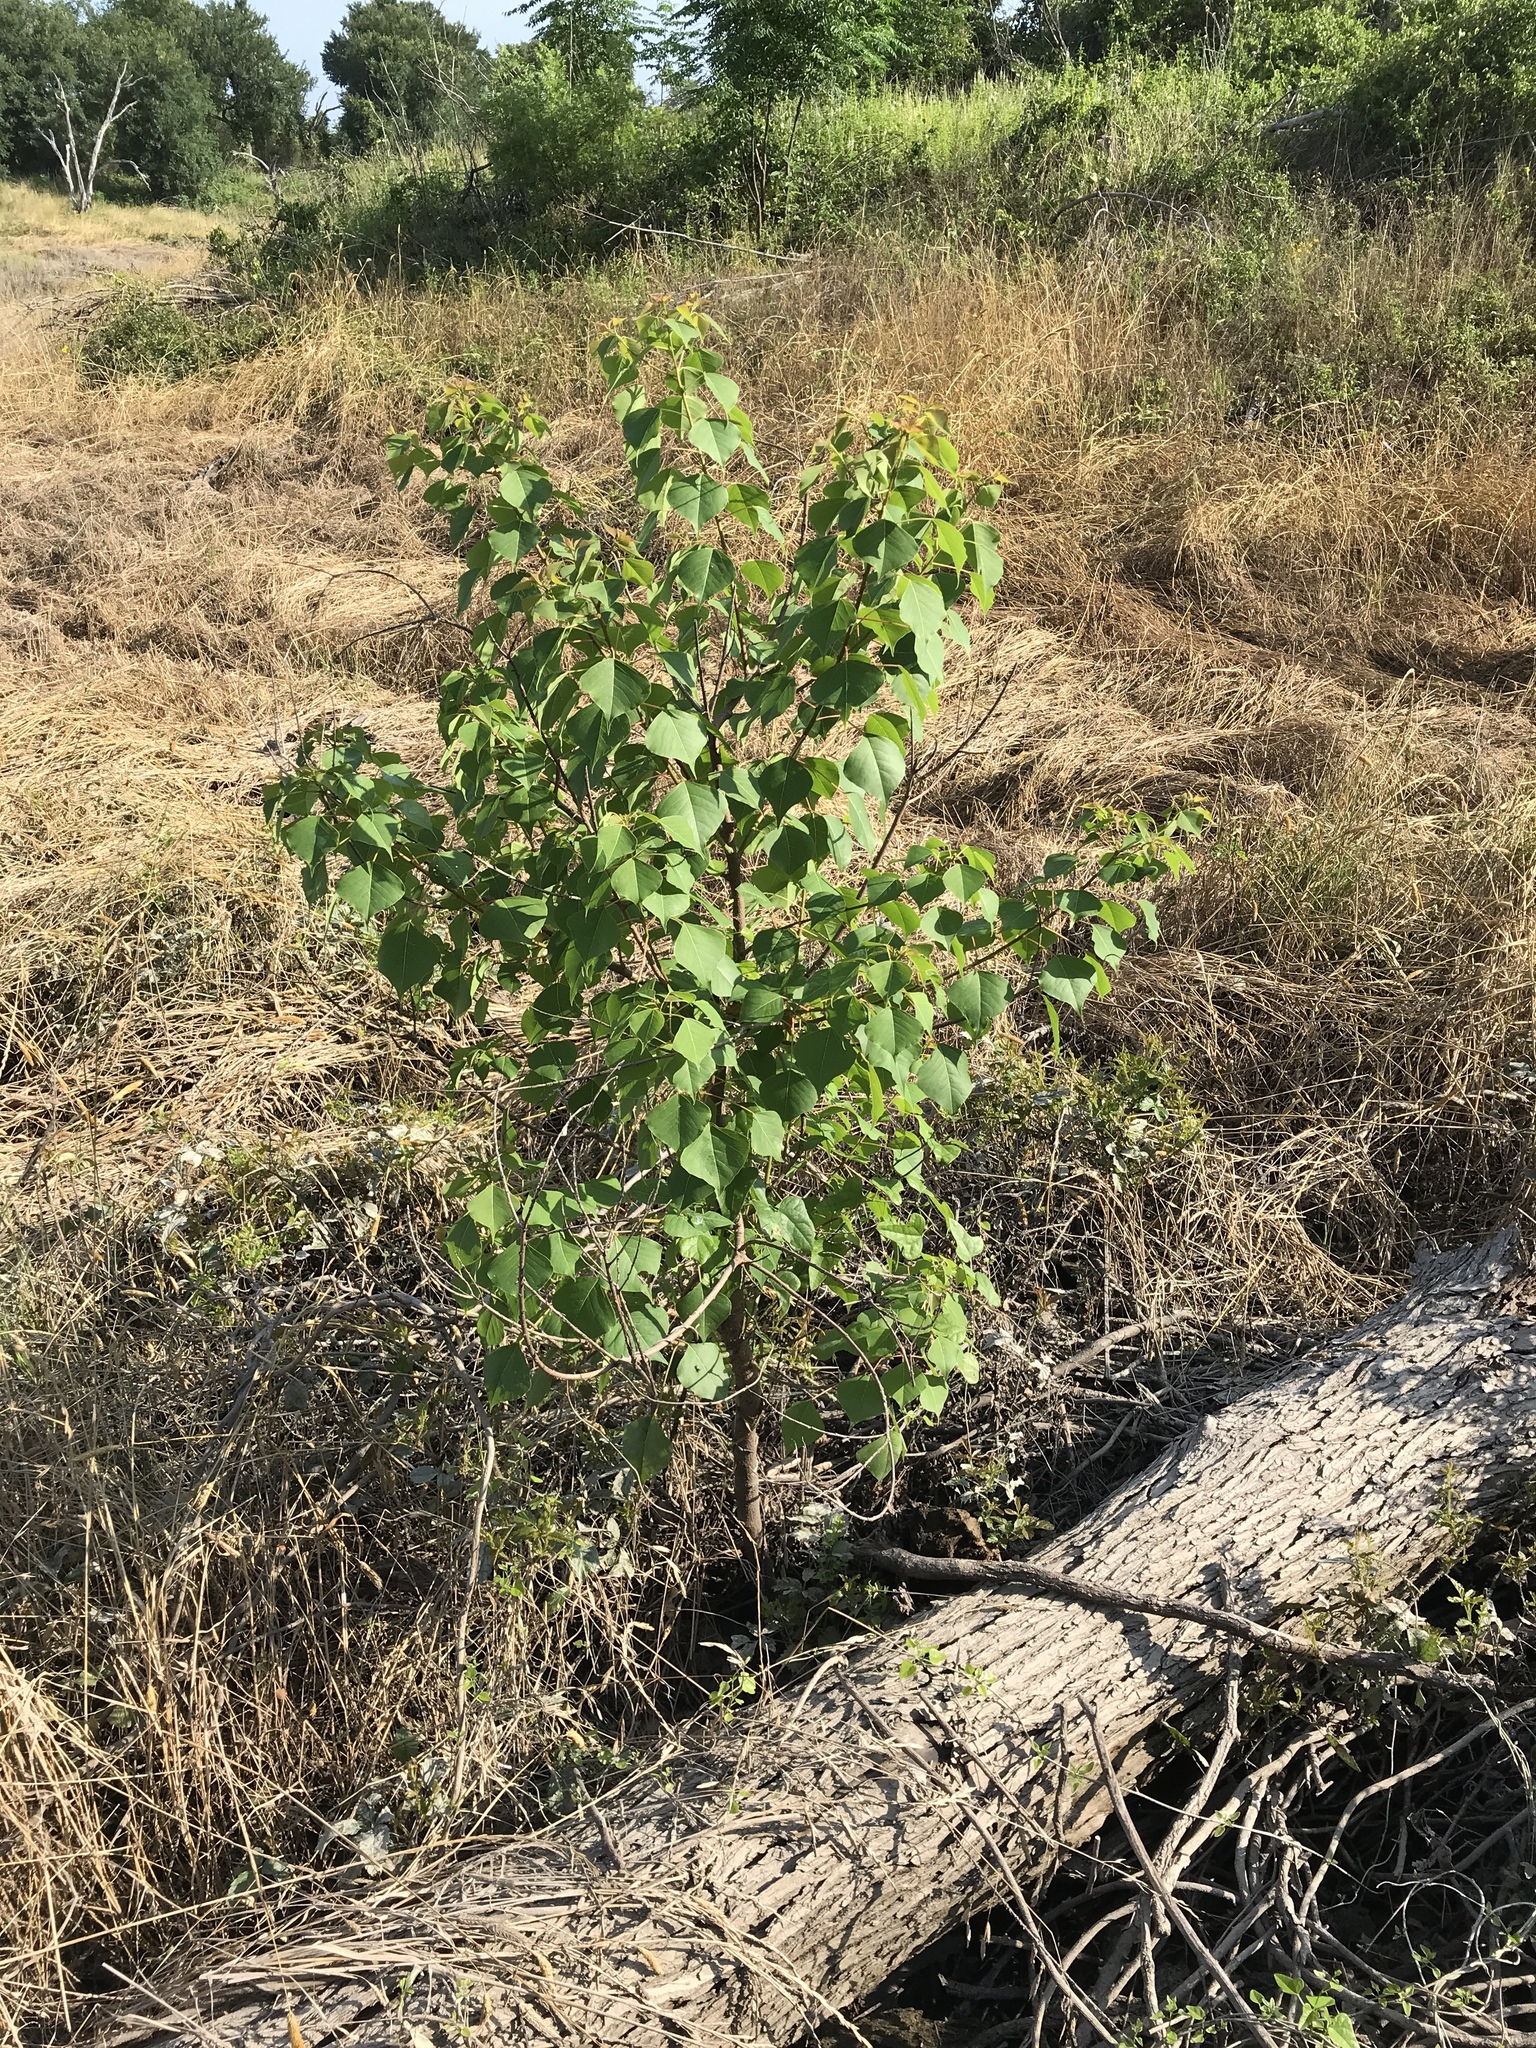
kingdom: Plantae
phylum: Tracheophyta
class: Magnoliopsida
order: Malpighiales
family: Euphorbiaceae
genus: Triadica
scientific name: Triadica sebifera
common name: Chinese tallow
